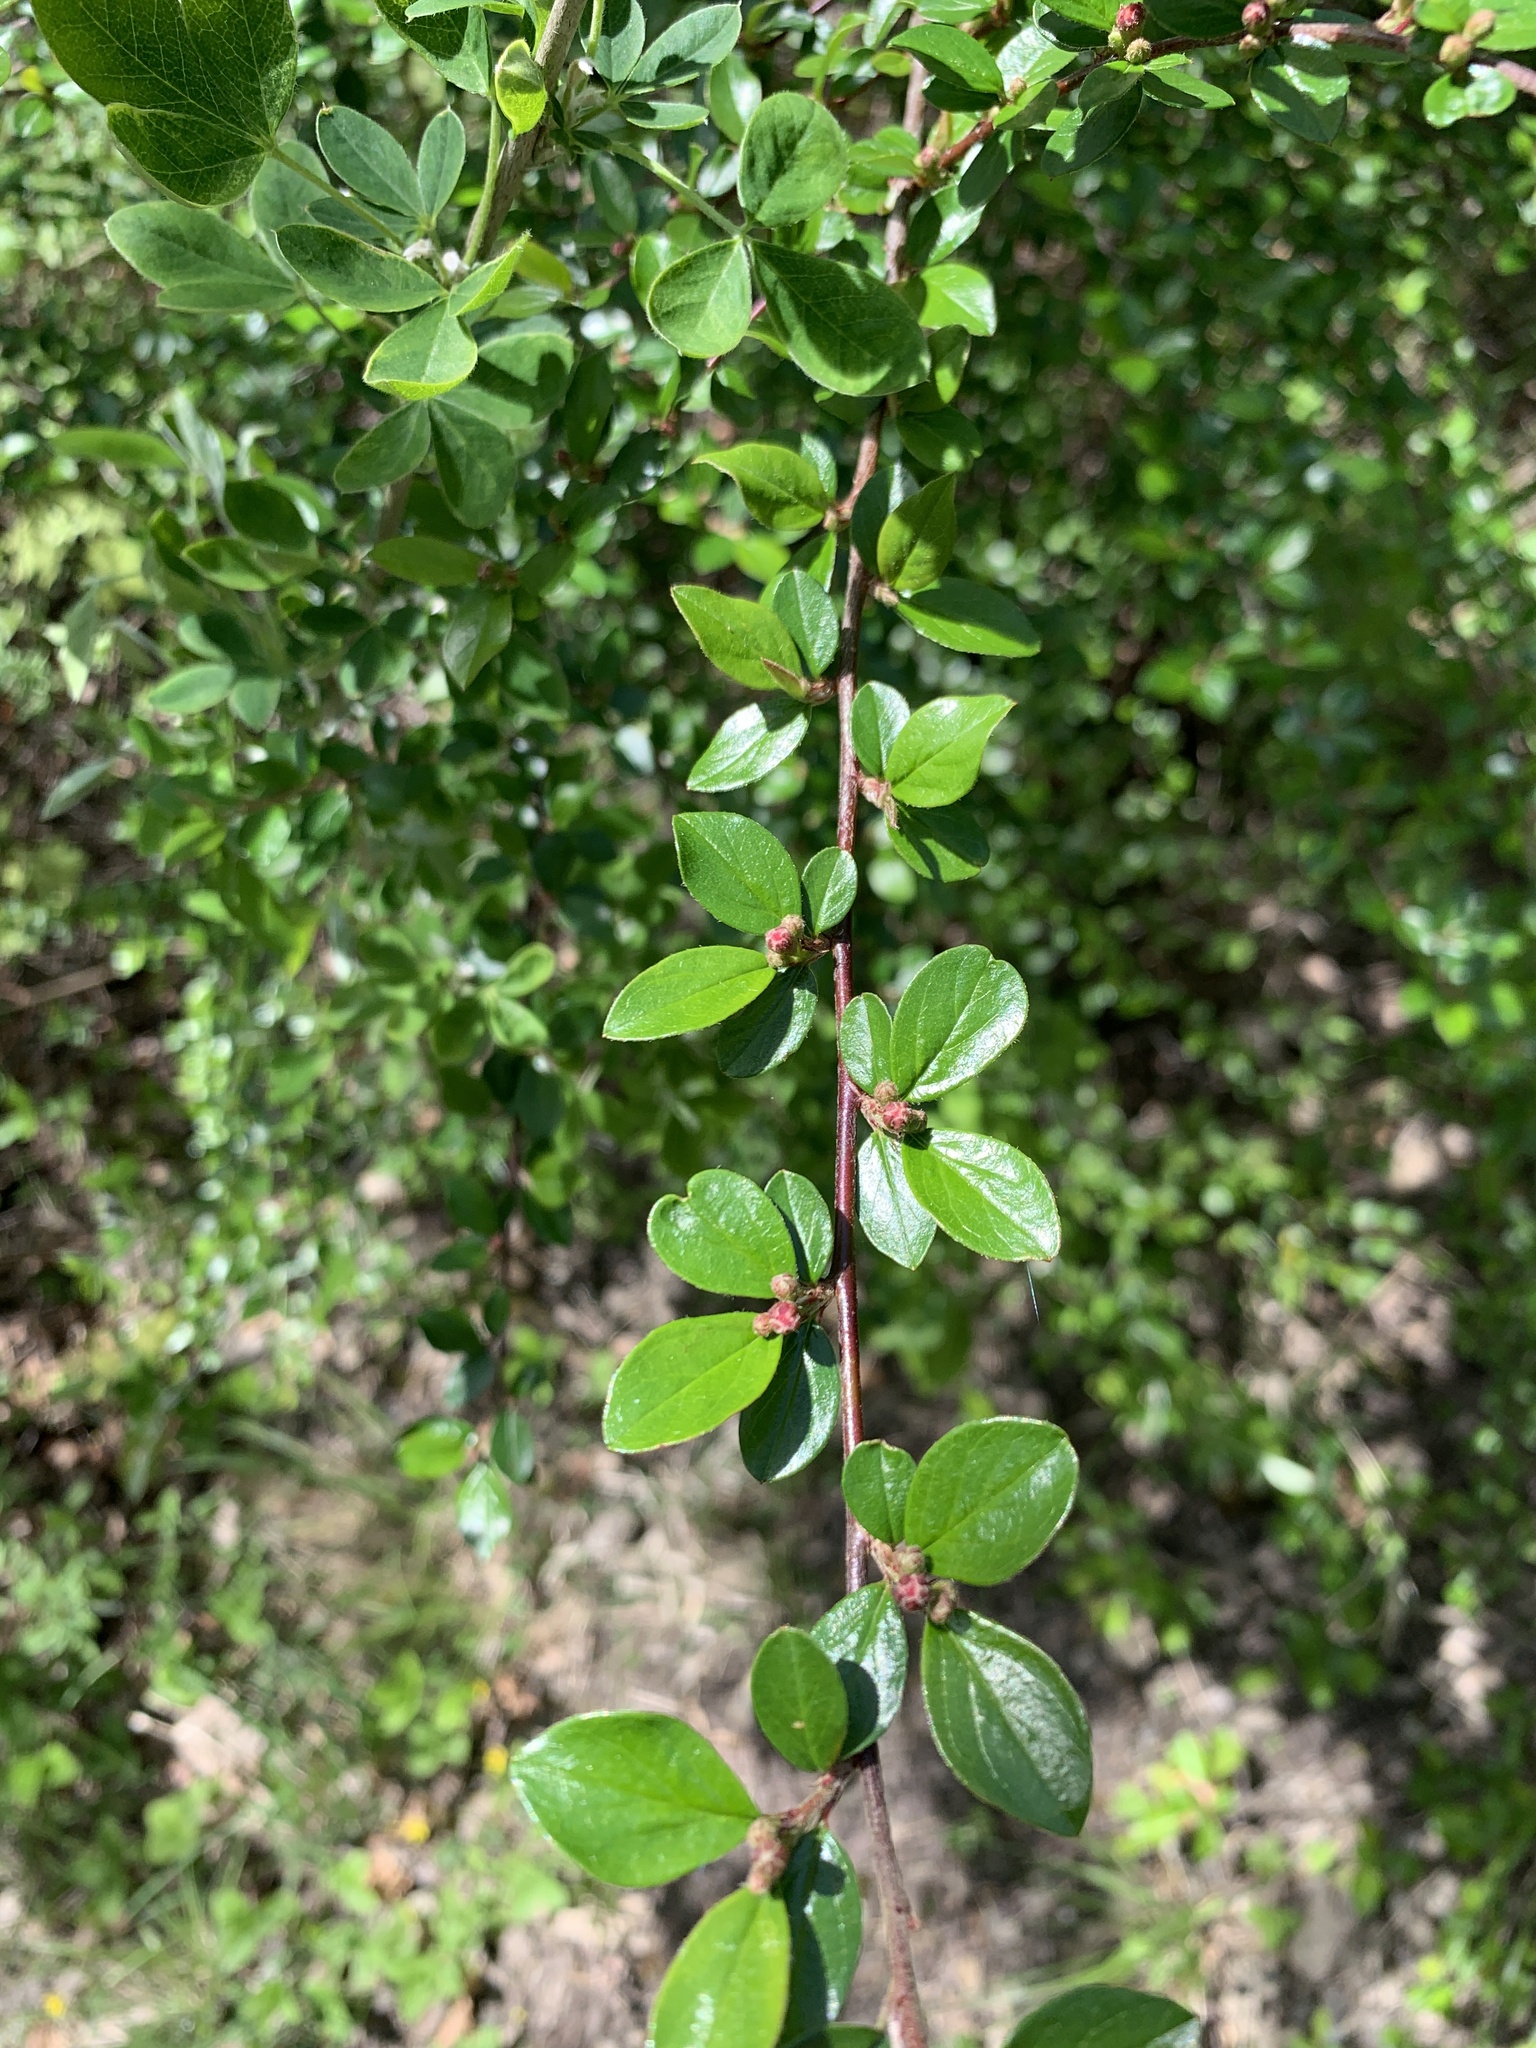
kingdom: Plantae
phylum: Tracheophyta
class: Magnoliopsida
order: Rosales
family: Rosaceae
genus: Cotoneaster
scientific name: Cotoneaster divaricatus
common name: Spreading cotoneaster
